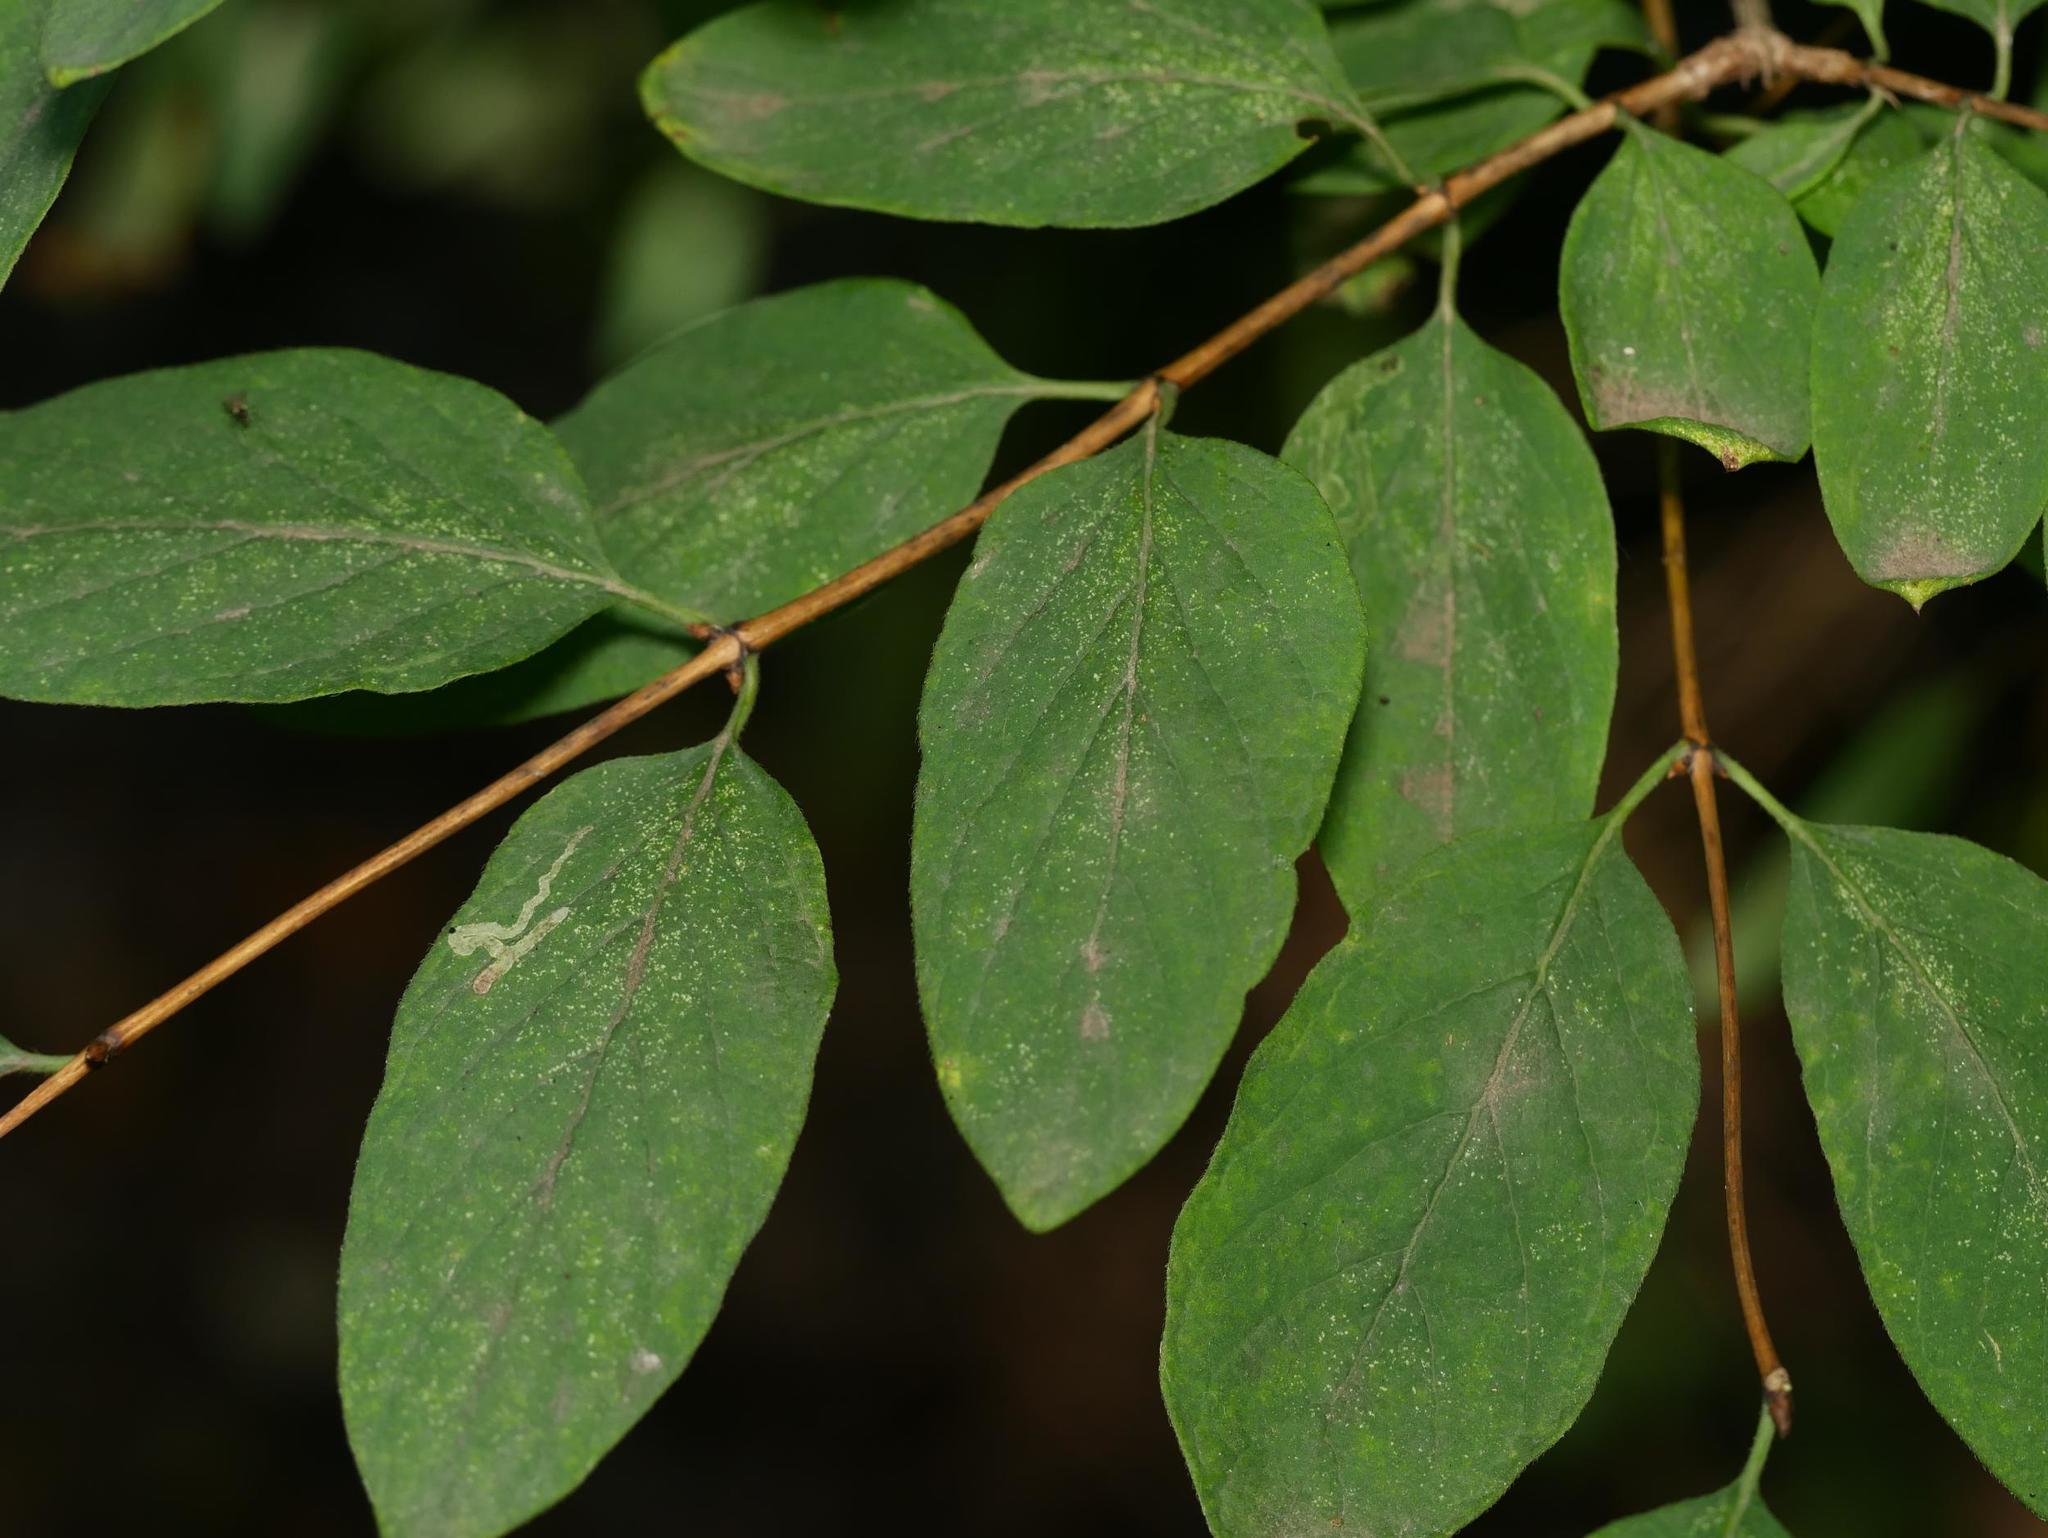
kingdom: Plantae
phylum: Tracheophyta
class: Magnoliopsida
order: Dipsacales
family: Caprifoliaceae
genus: Lonicera
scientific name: Lonicera xylosteum
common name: Fly honeysuckle
